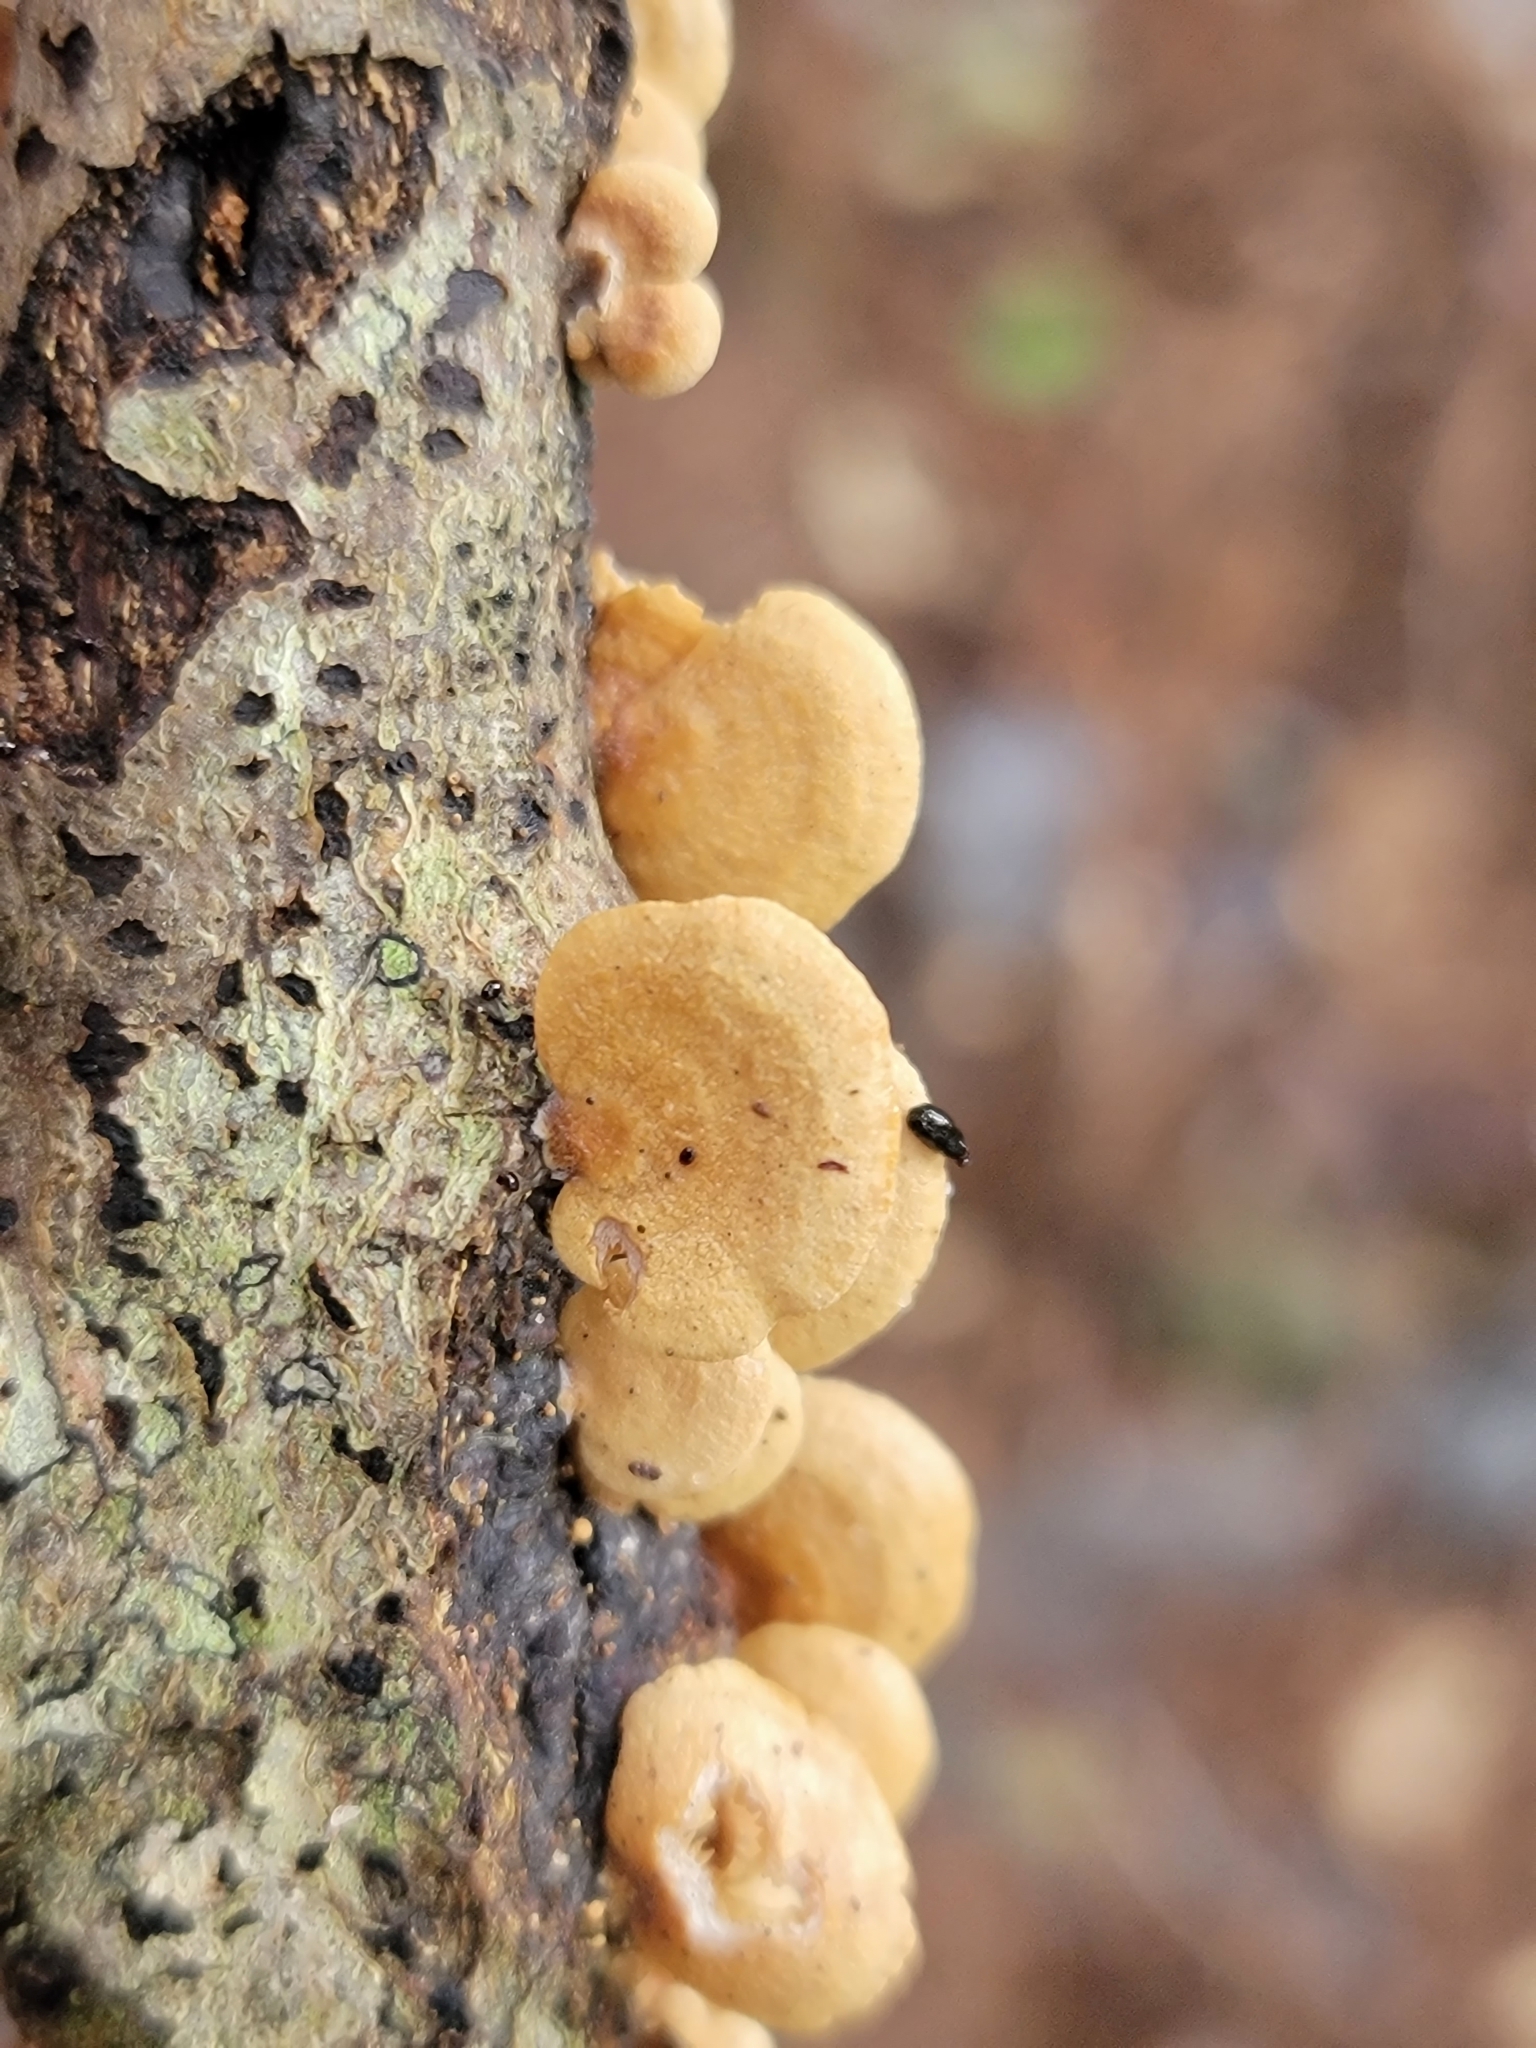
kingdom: Fungi
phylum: Basidiomycota
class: Agaricomycetes
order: Agaricales
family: Mycenaceae
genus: Panellus
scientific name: Panellus stipticus
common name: Bitter oysterling
